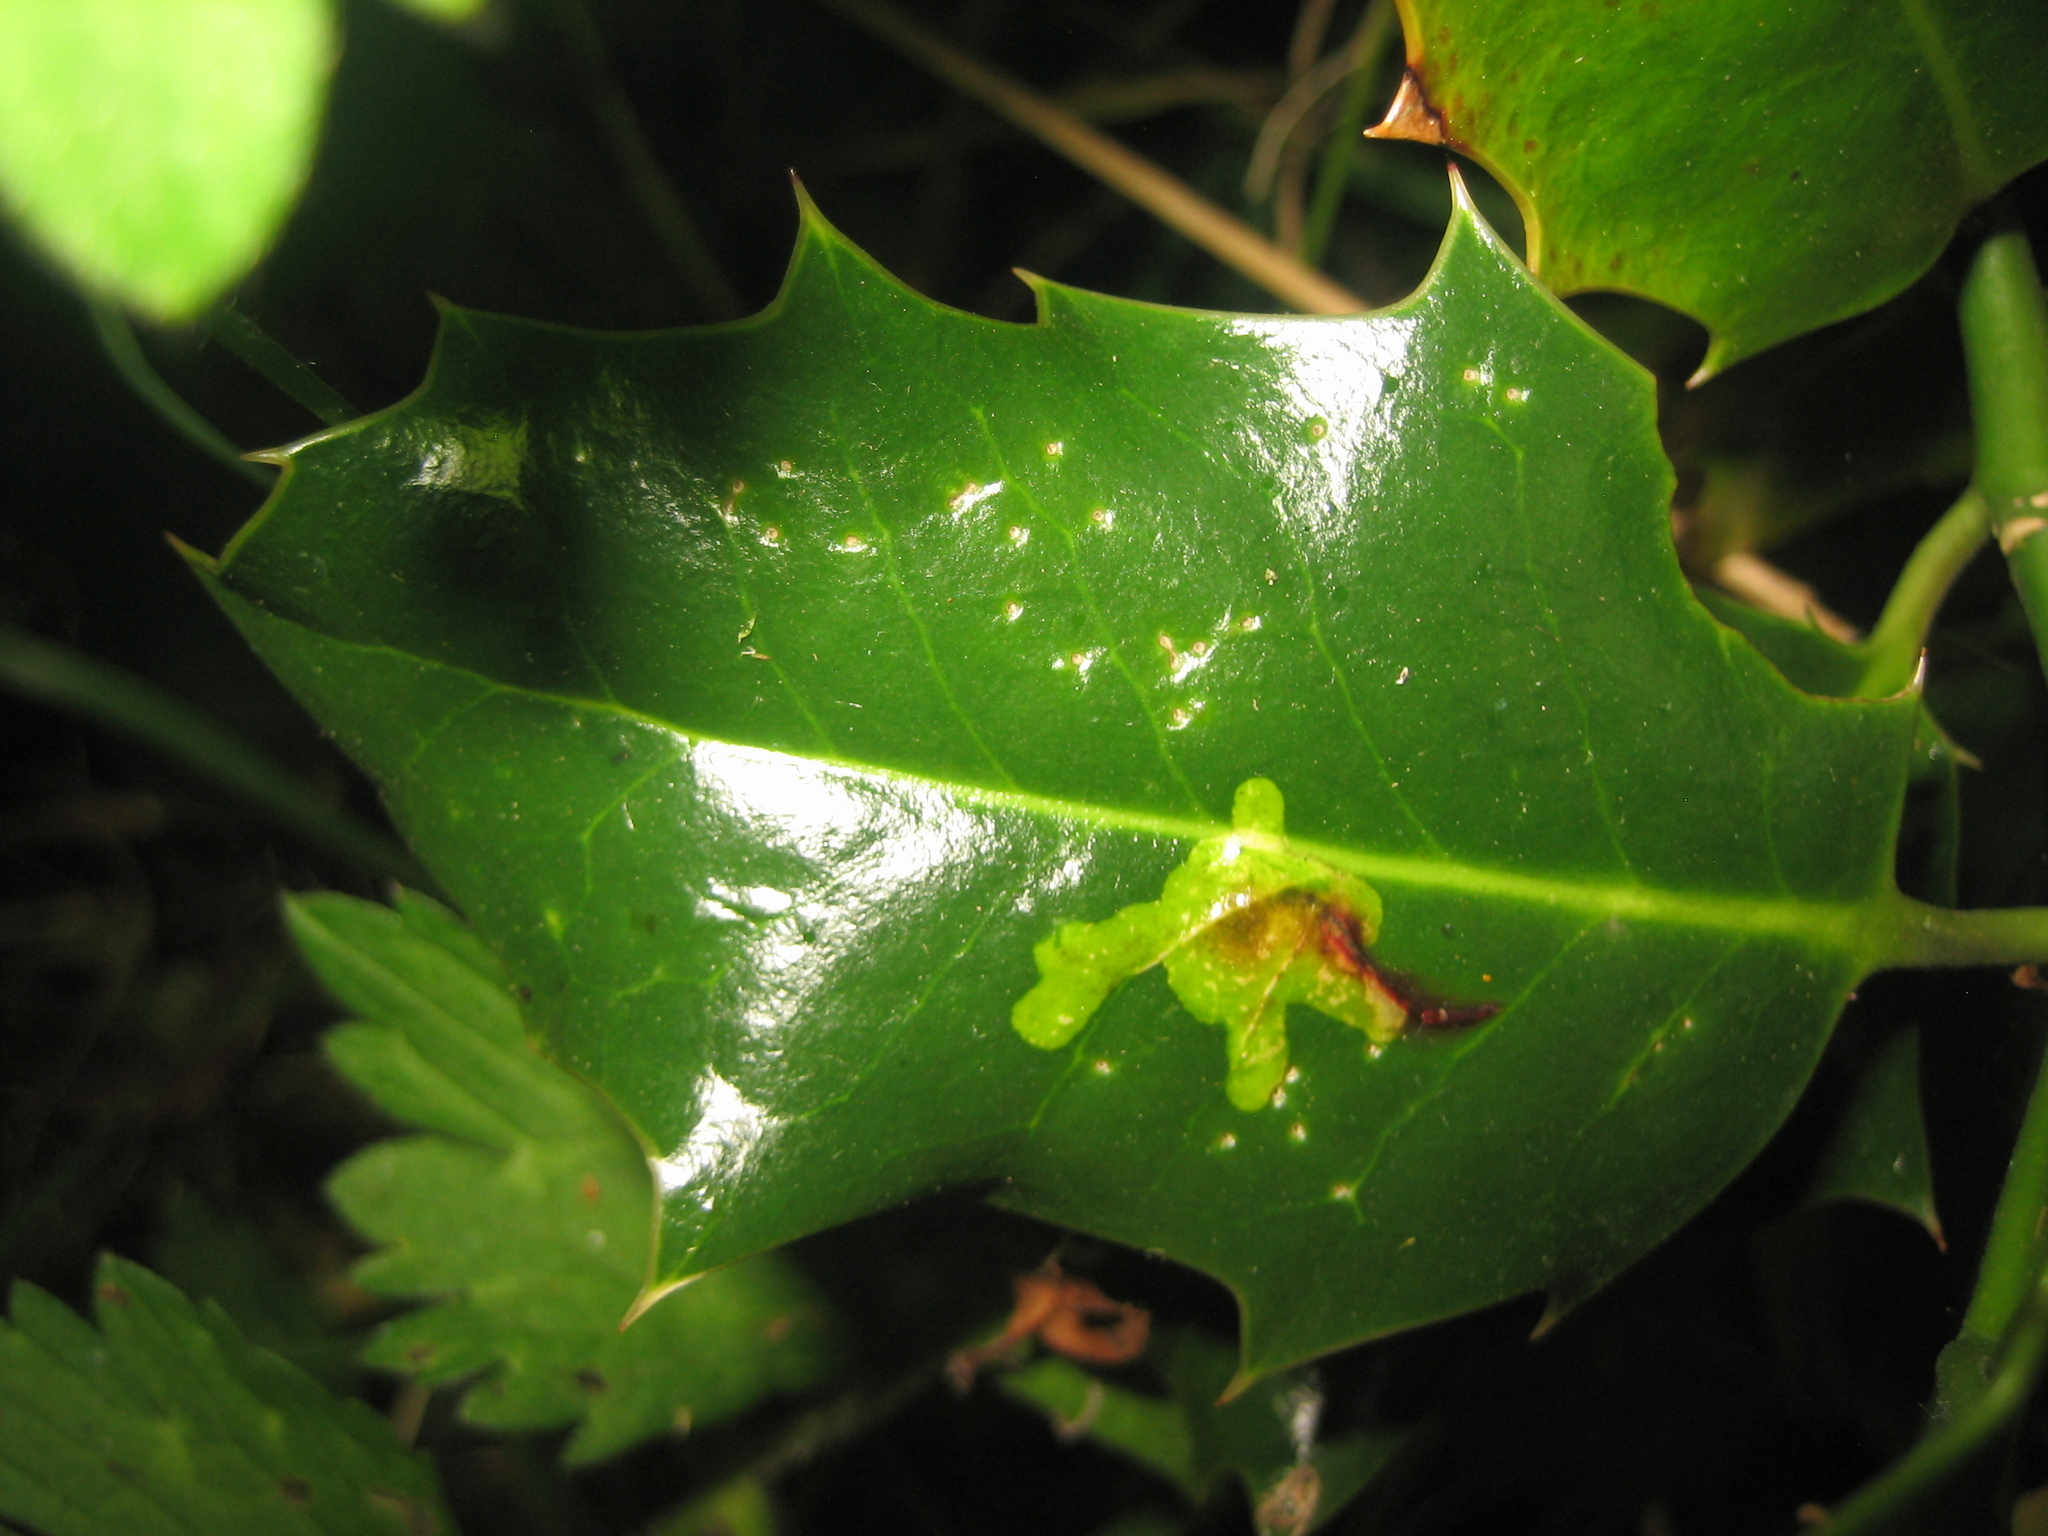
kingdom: Animalia
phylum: Arthropoda
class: Insecta
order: Diptera
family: Agromyzidae
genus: Phytomyza
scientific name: Phytomyza ilicis
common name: Holly leafminer
